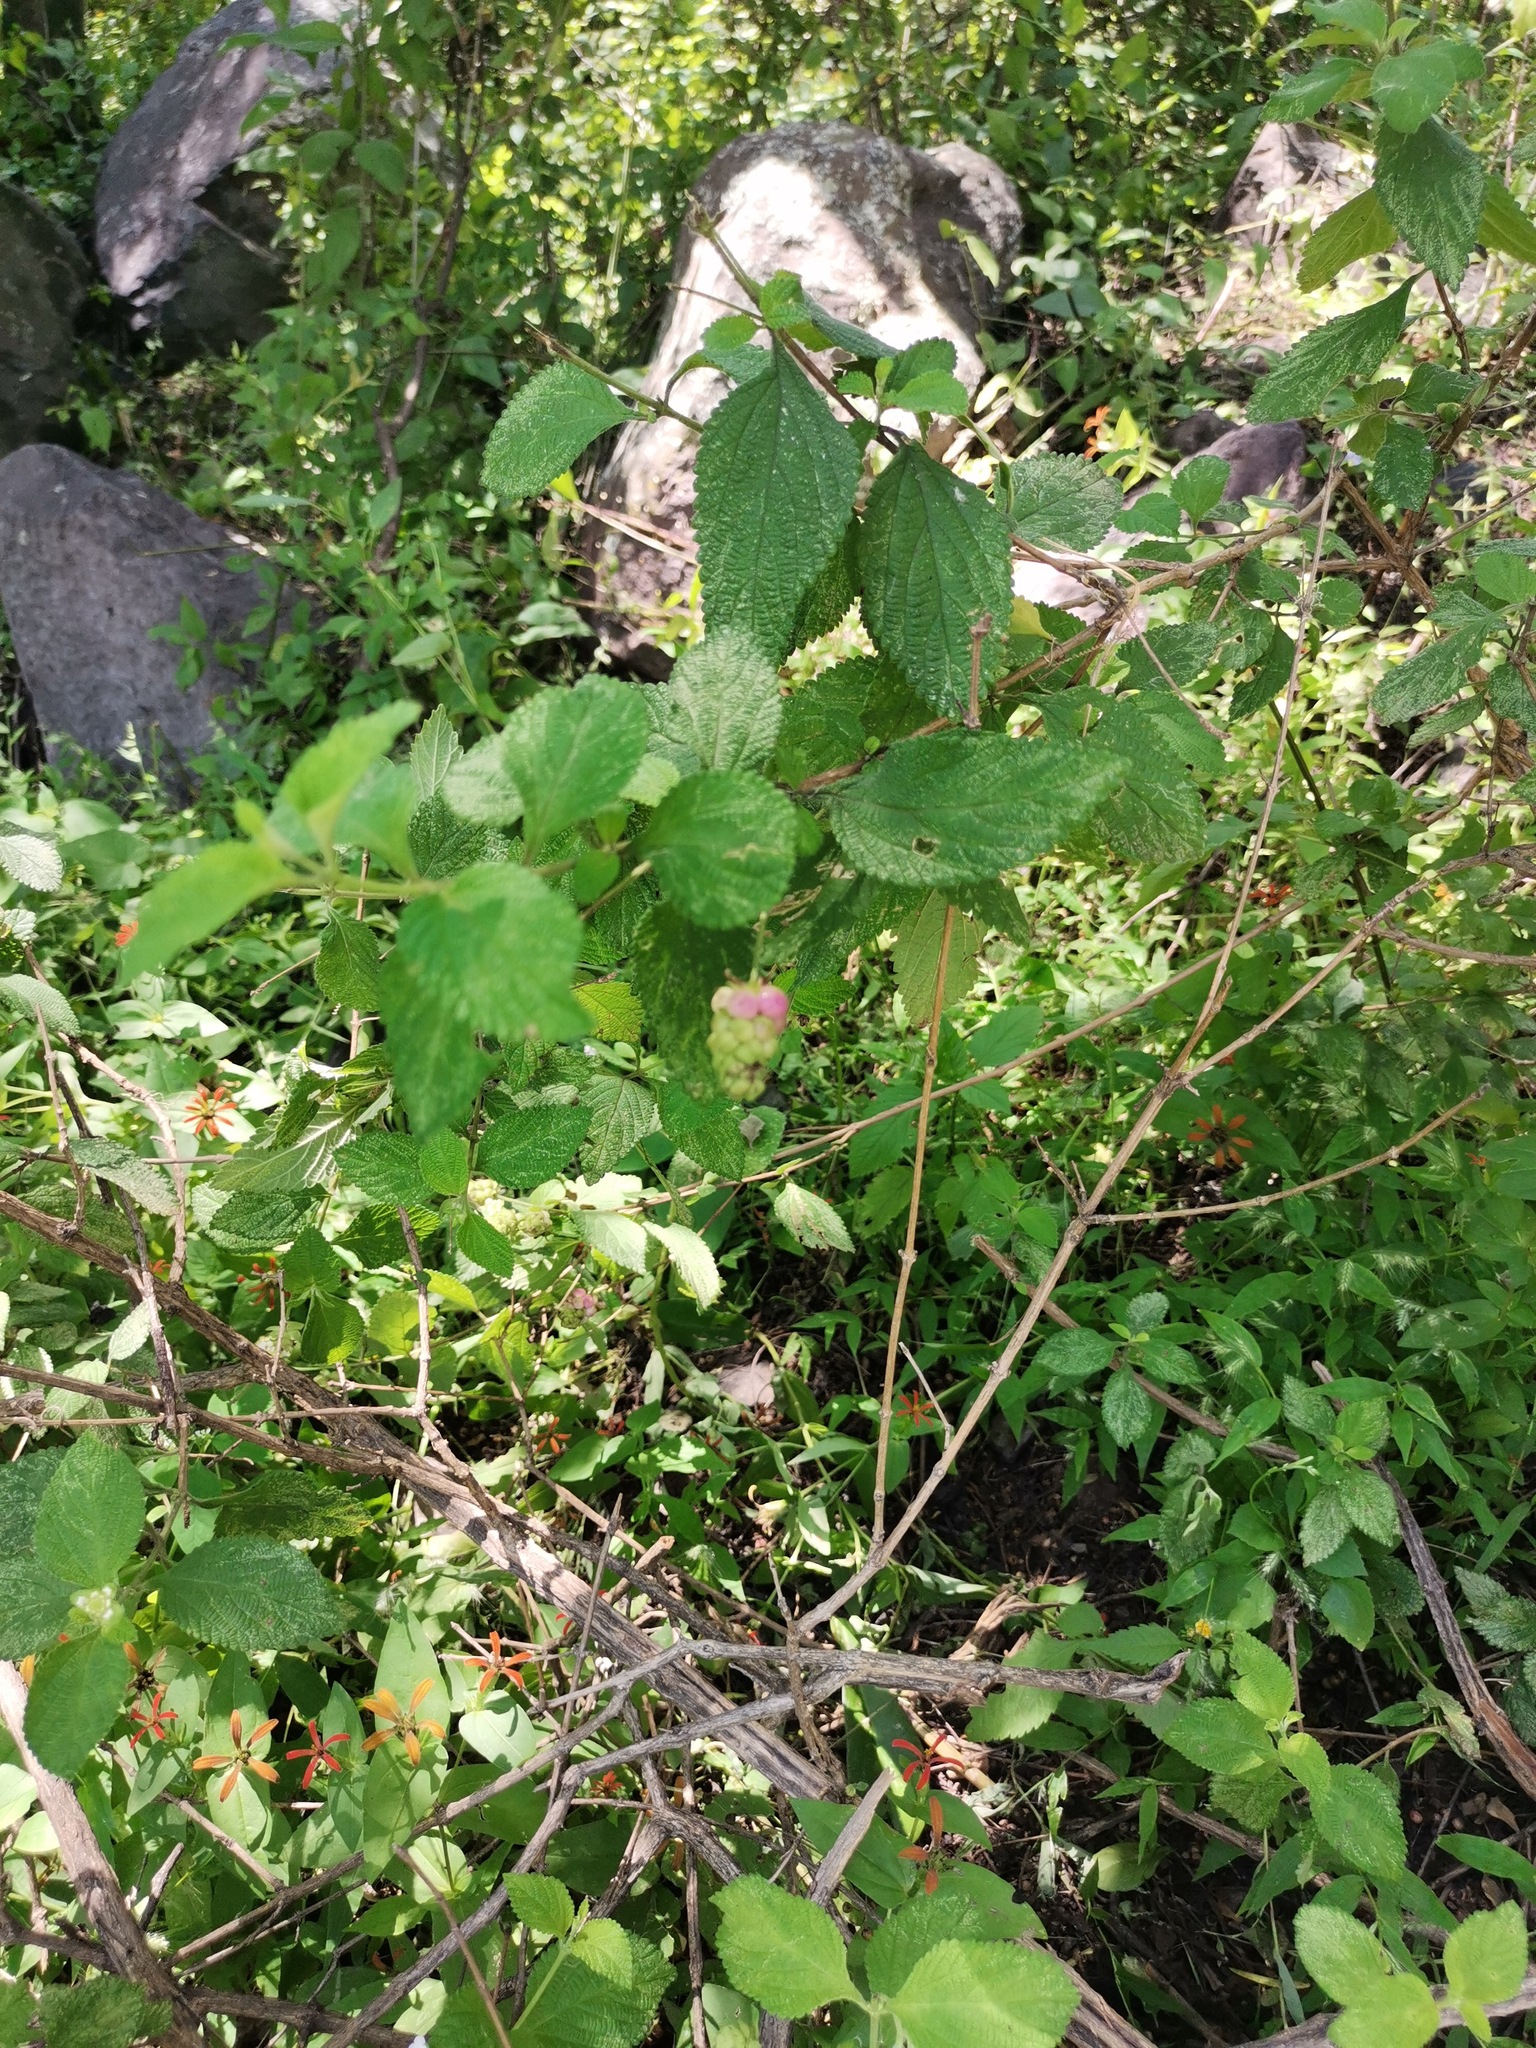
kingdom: Plantae
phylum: Tracheophyta
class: Magnoliopsida
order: Lamiales
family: Verbenaceae
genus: Lantana
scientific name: Lantana camara
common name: Lantana
